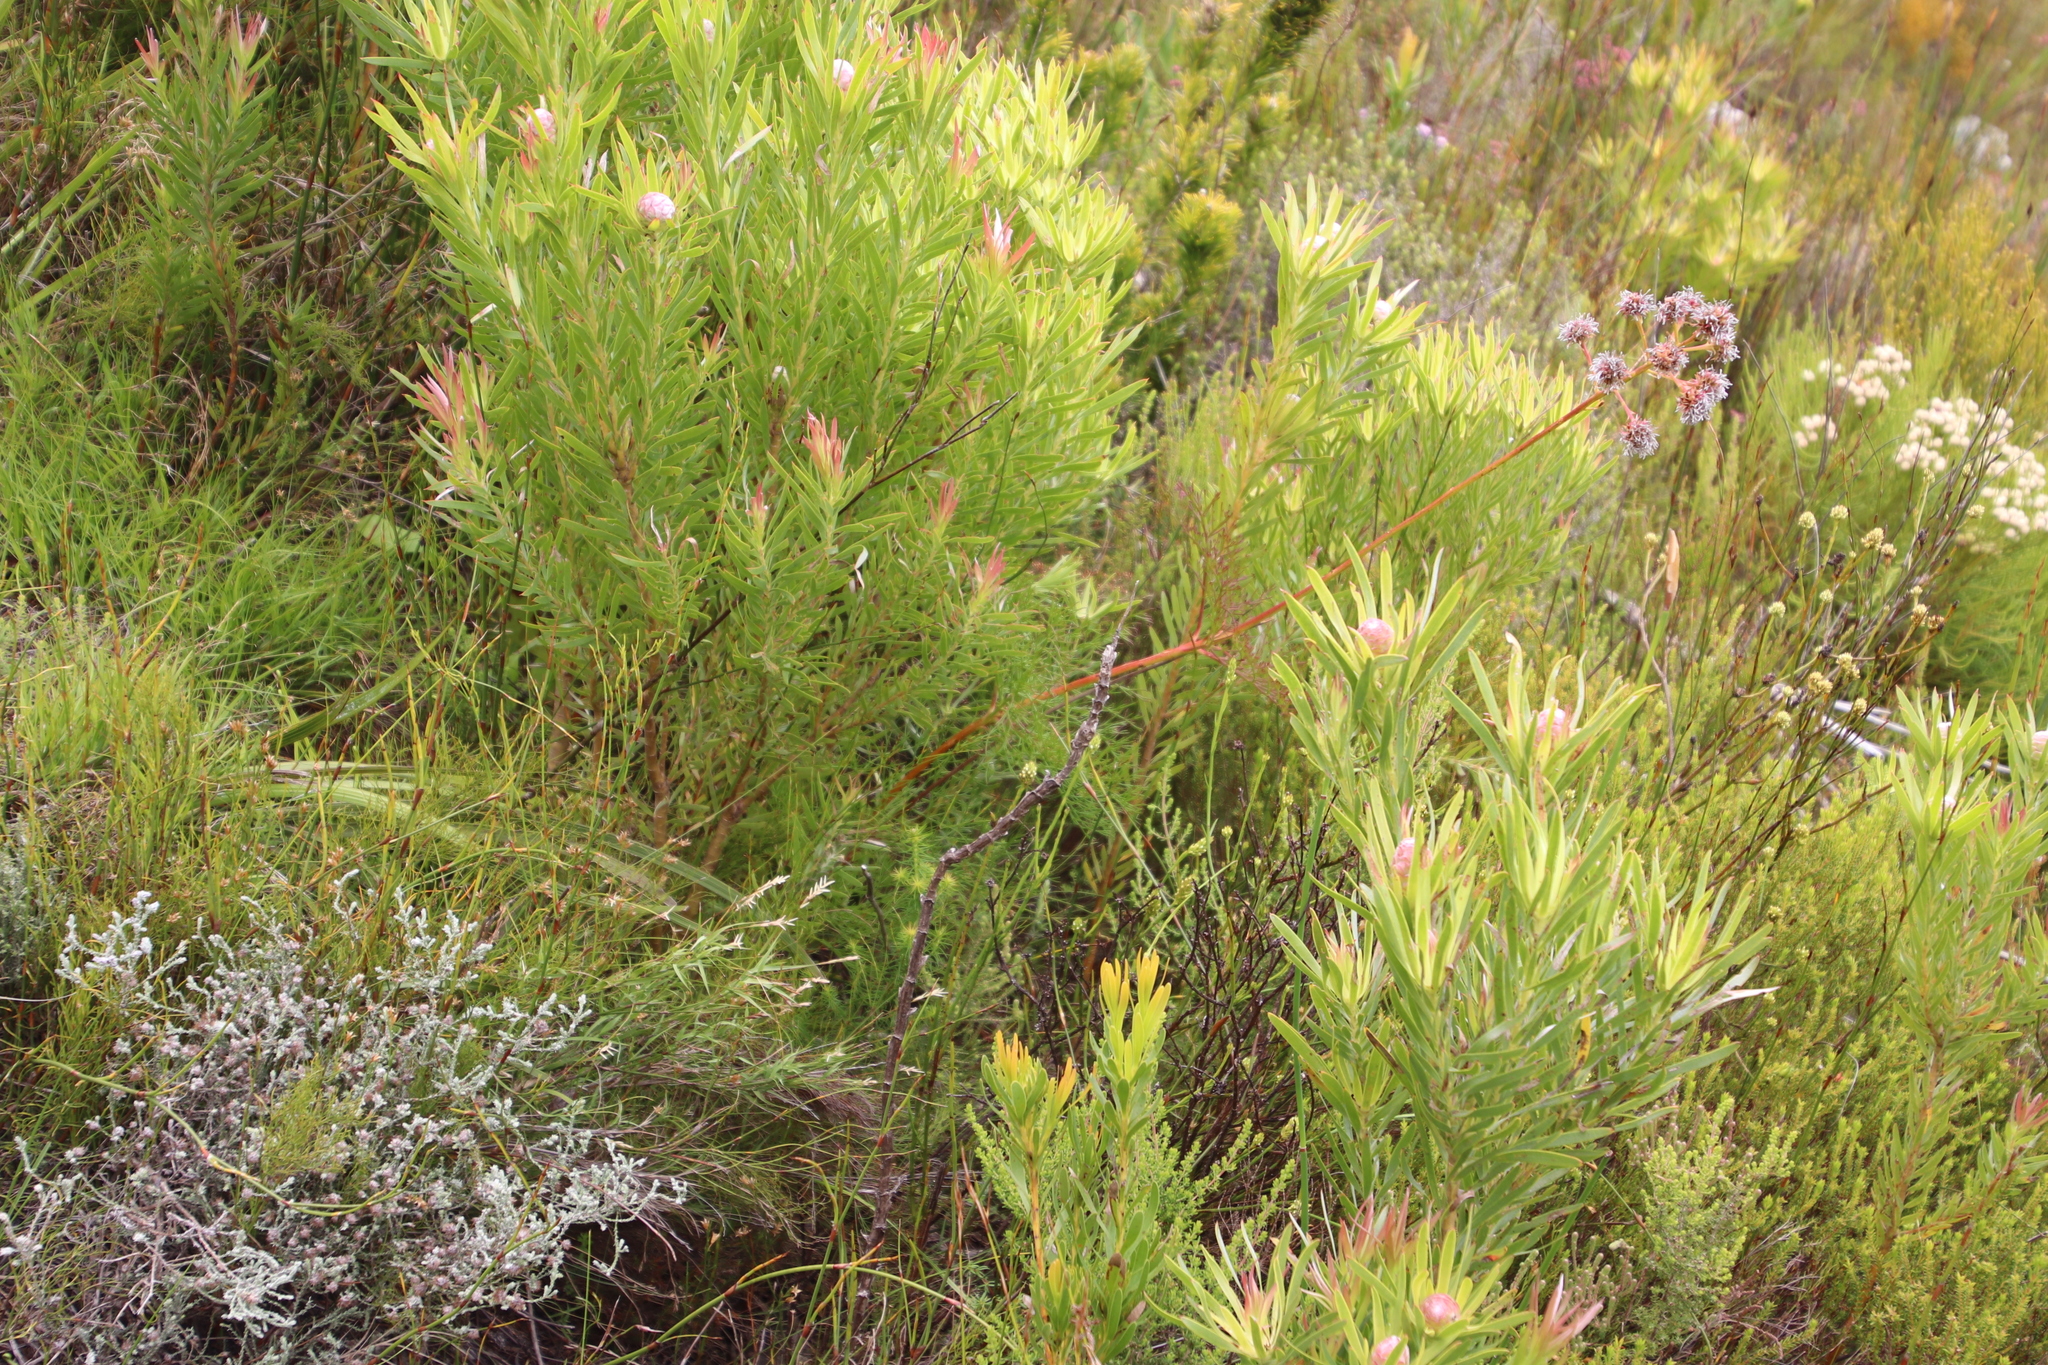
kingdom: Plantae
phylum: Tracheophyta
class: Magnoliopsida
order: Proteales
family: Proteaceae
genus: Leucadendron
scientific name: Leucadendron xanthoconus
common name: Sickle-leaf conebush
